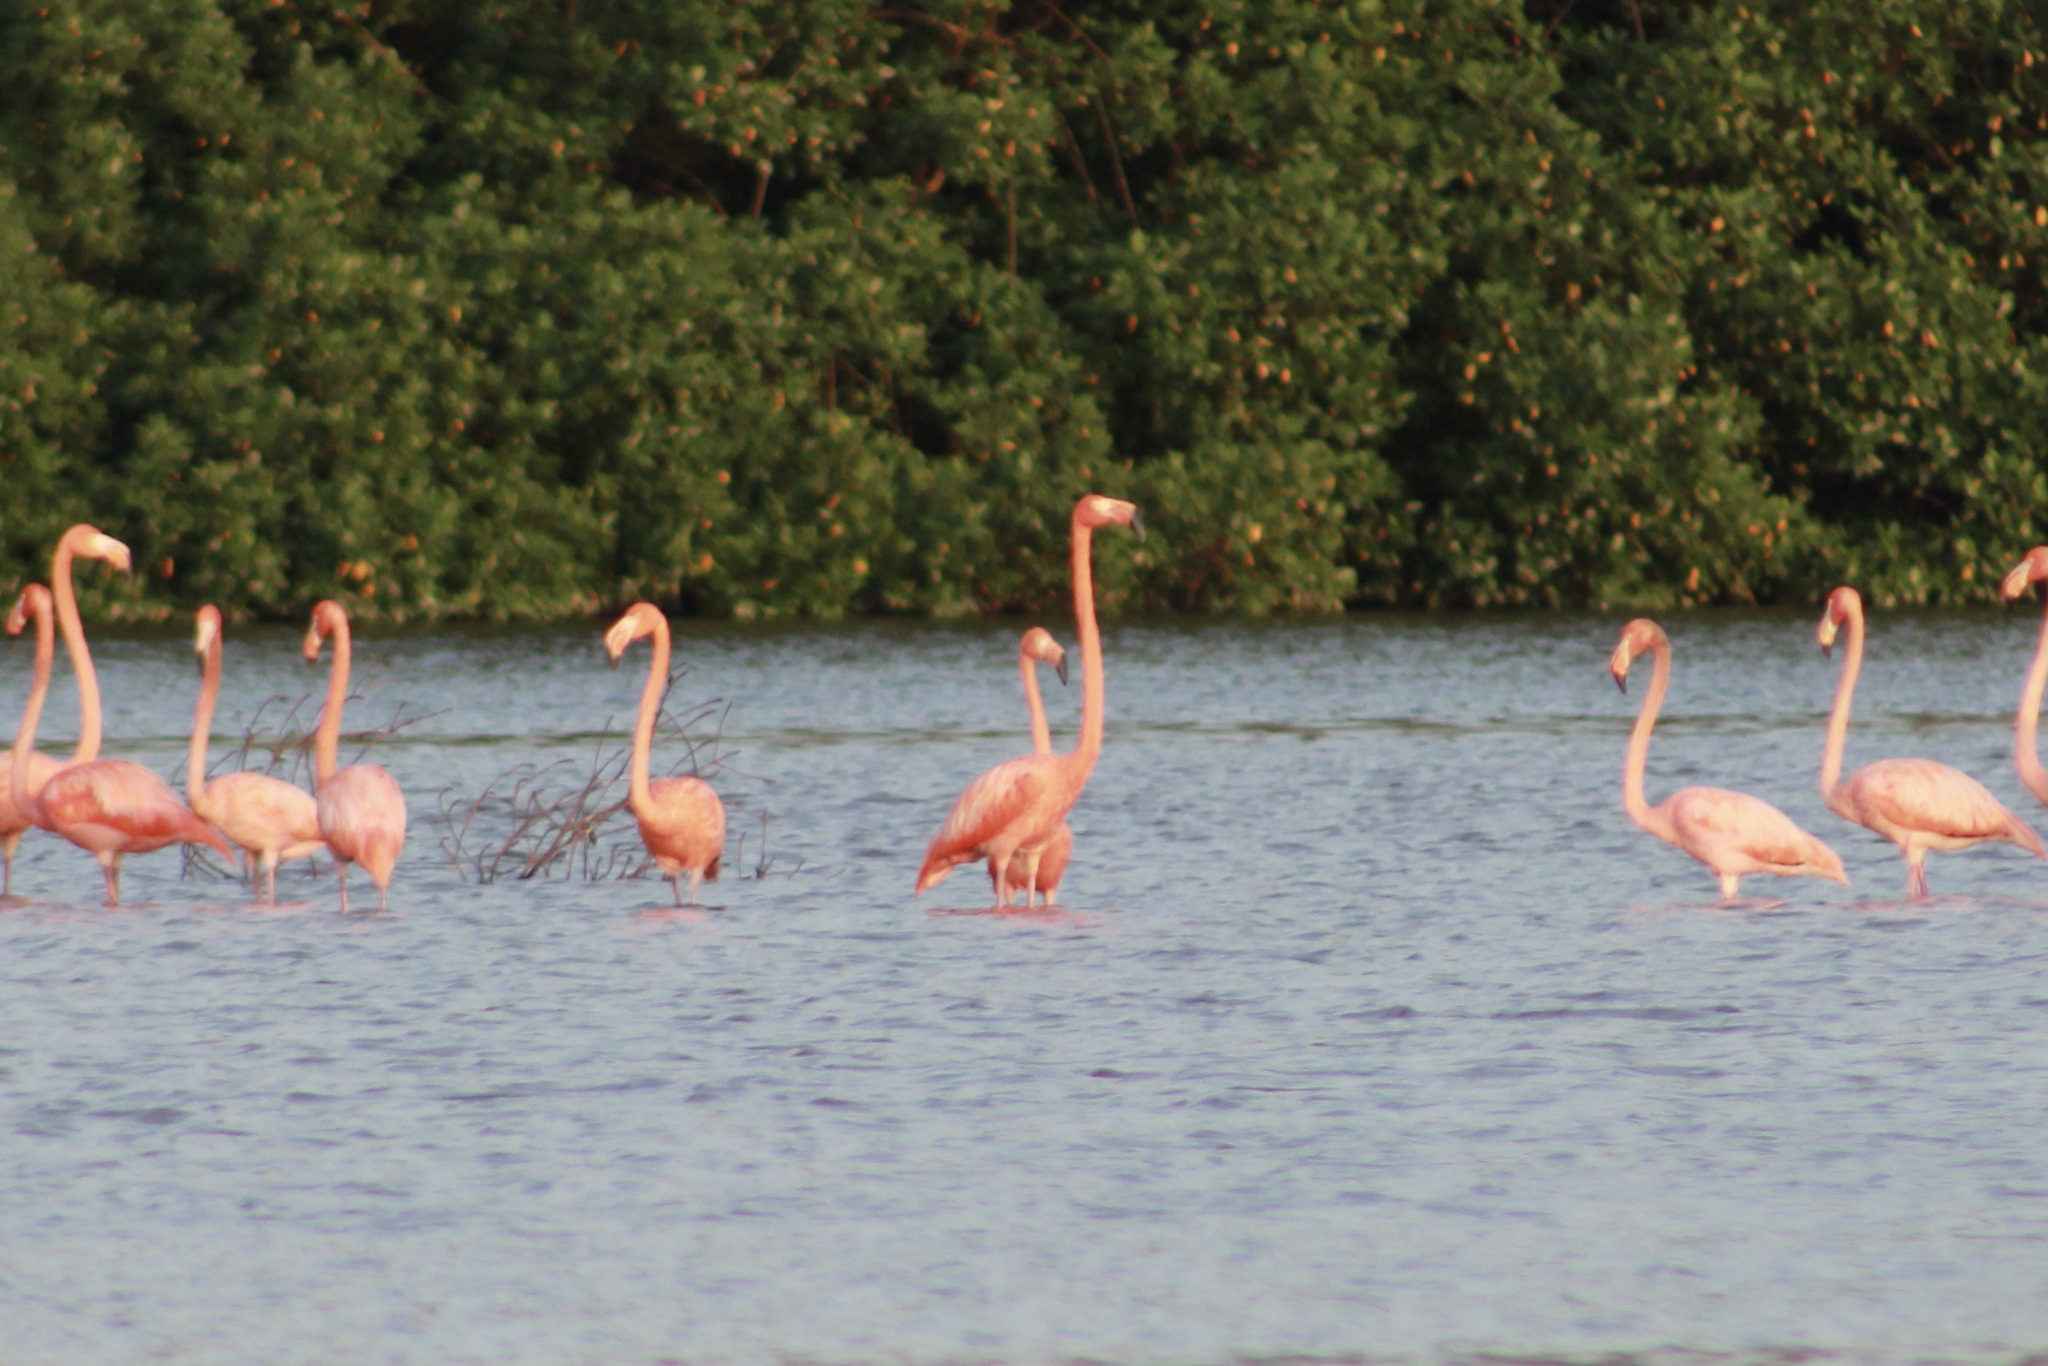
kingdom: Animalia
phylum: Chordata
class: Aves
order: Phoenicopteriformes
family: Phoenicopteridae
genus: Phoenicopterus
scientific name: Phoenicopterus ruber
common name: American flamingo
